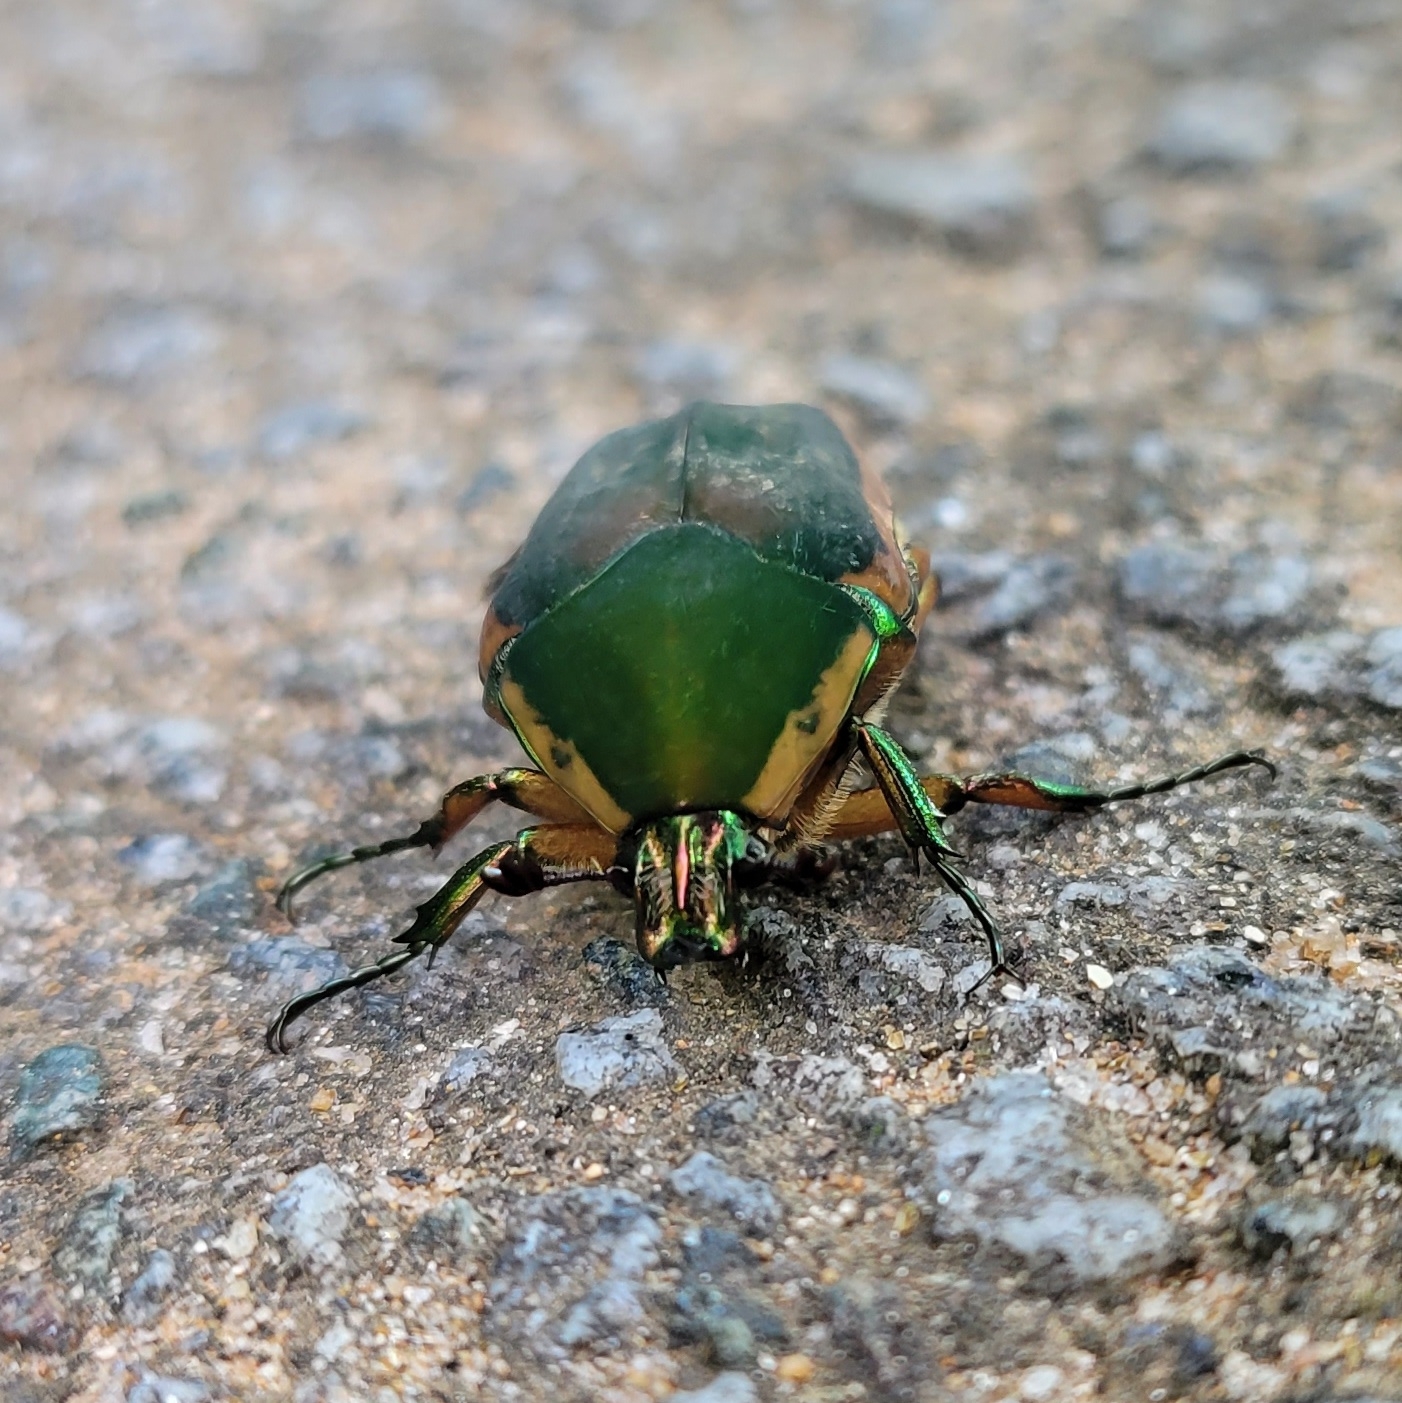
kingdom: Animalia
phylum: Arthropoda
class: Insecta
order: Coleoptera
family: Scarabaeidae
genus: Cotinis
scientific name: Cotinis nitida
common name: Common green june beetle
